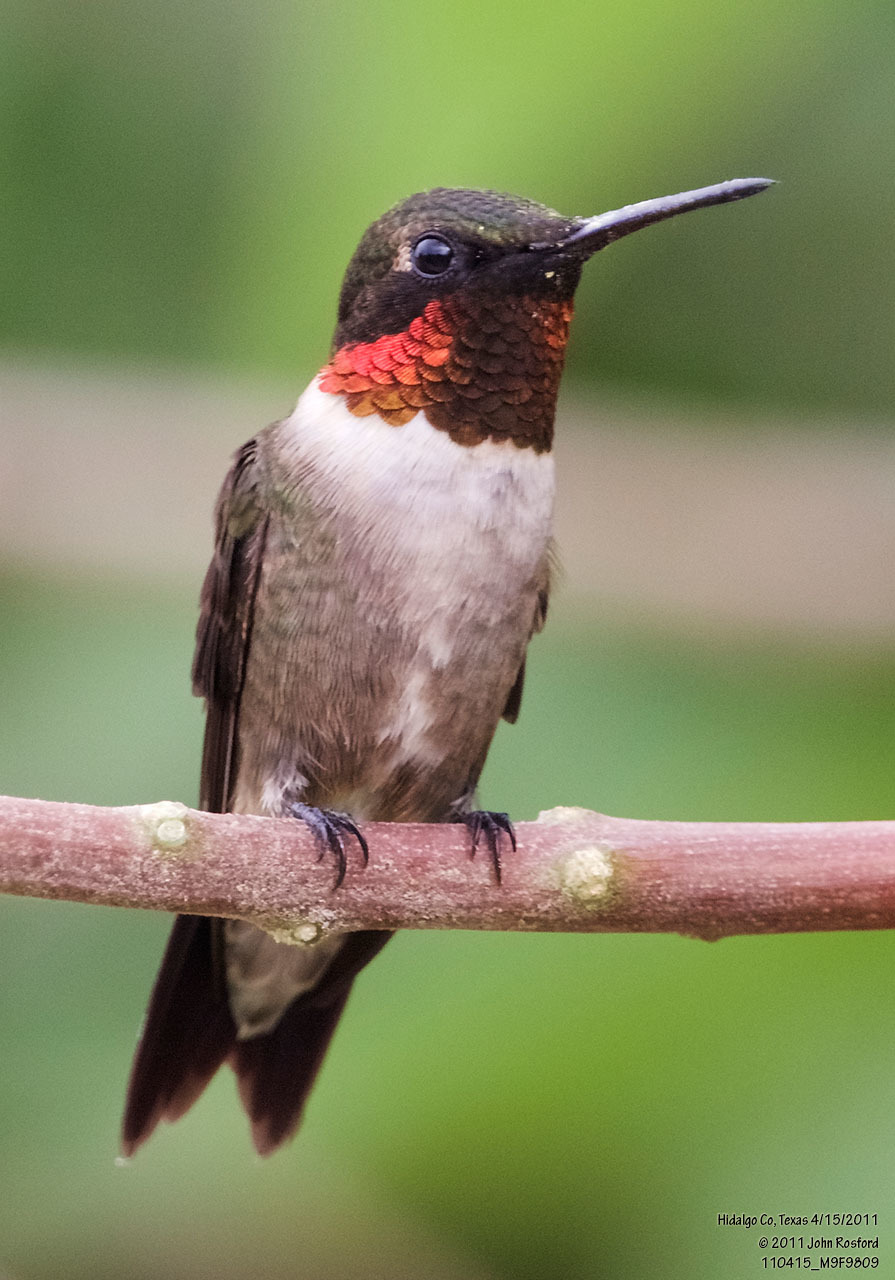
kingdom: Animalia
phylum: Chordata
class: Aves
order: Apodiformes
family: Trochilidae
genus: Archilochus
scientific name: Archilochus colubris
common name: Ruby-throated hummingbird
